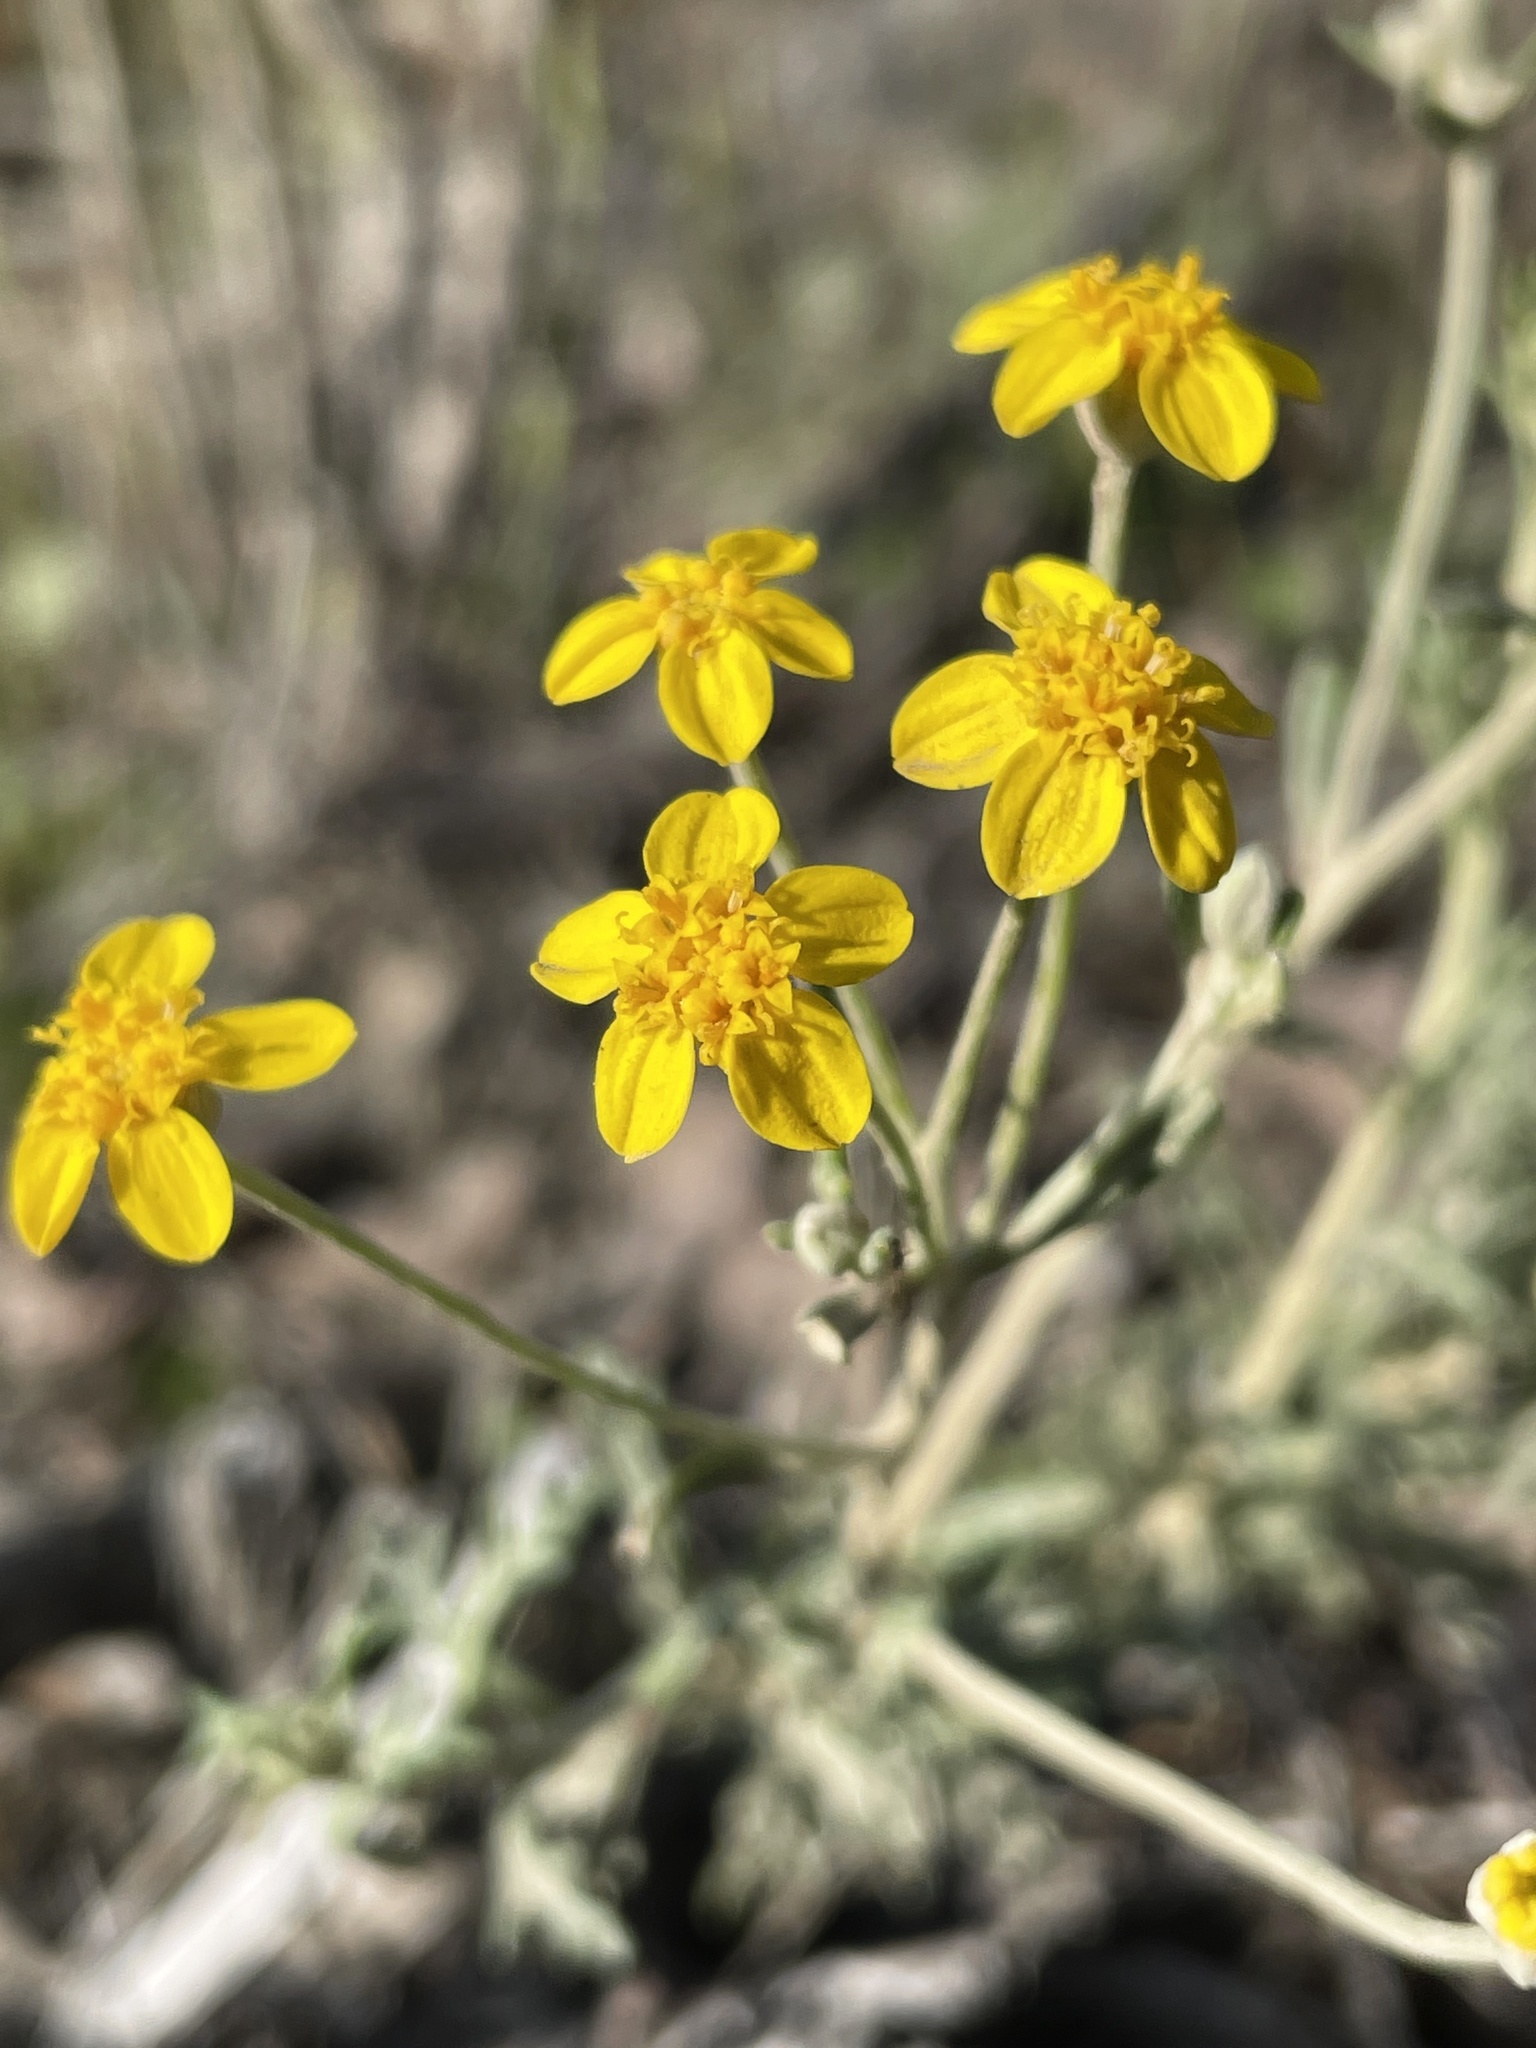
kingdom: Plantae
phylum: Tracheophyta
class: Magnoliopsida
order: Asterales
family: Asteraceae
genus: Eriophyllum
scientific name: Eriophyllum confertiflorum
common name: Golden-yarrow
